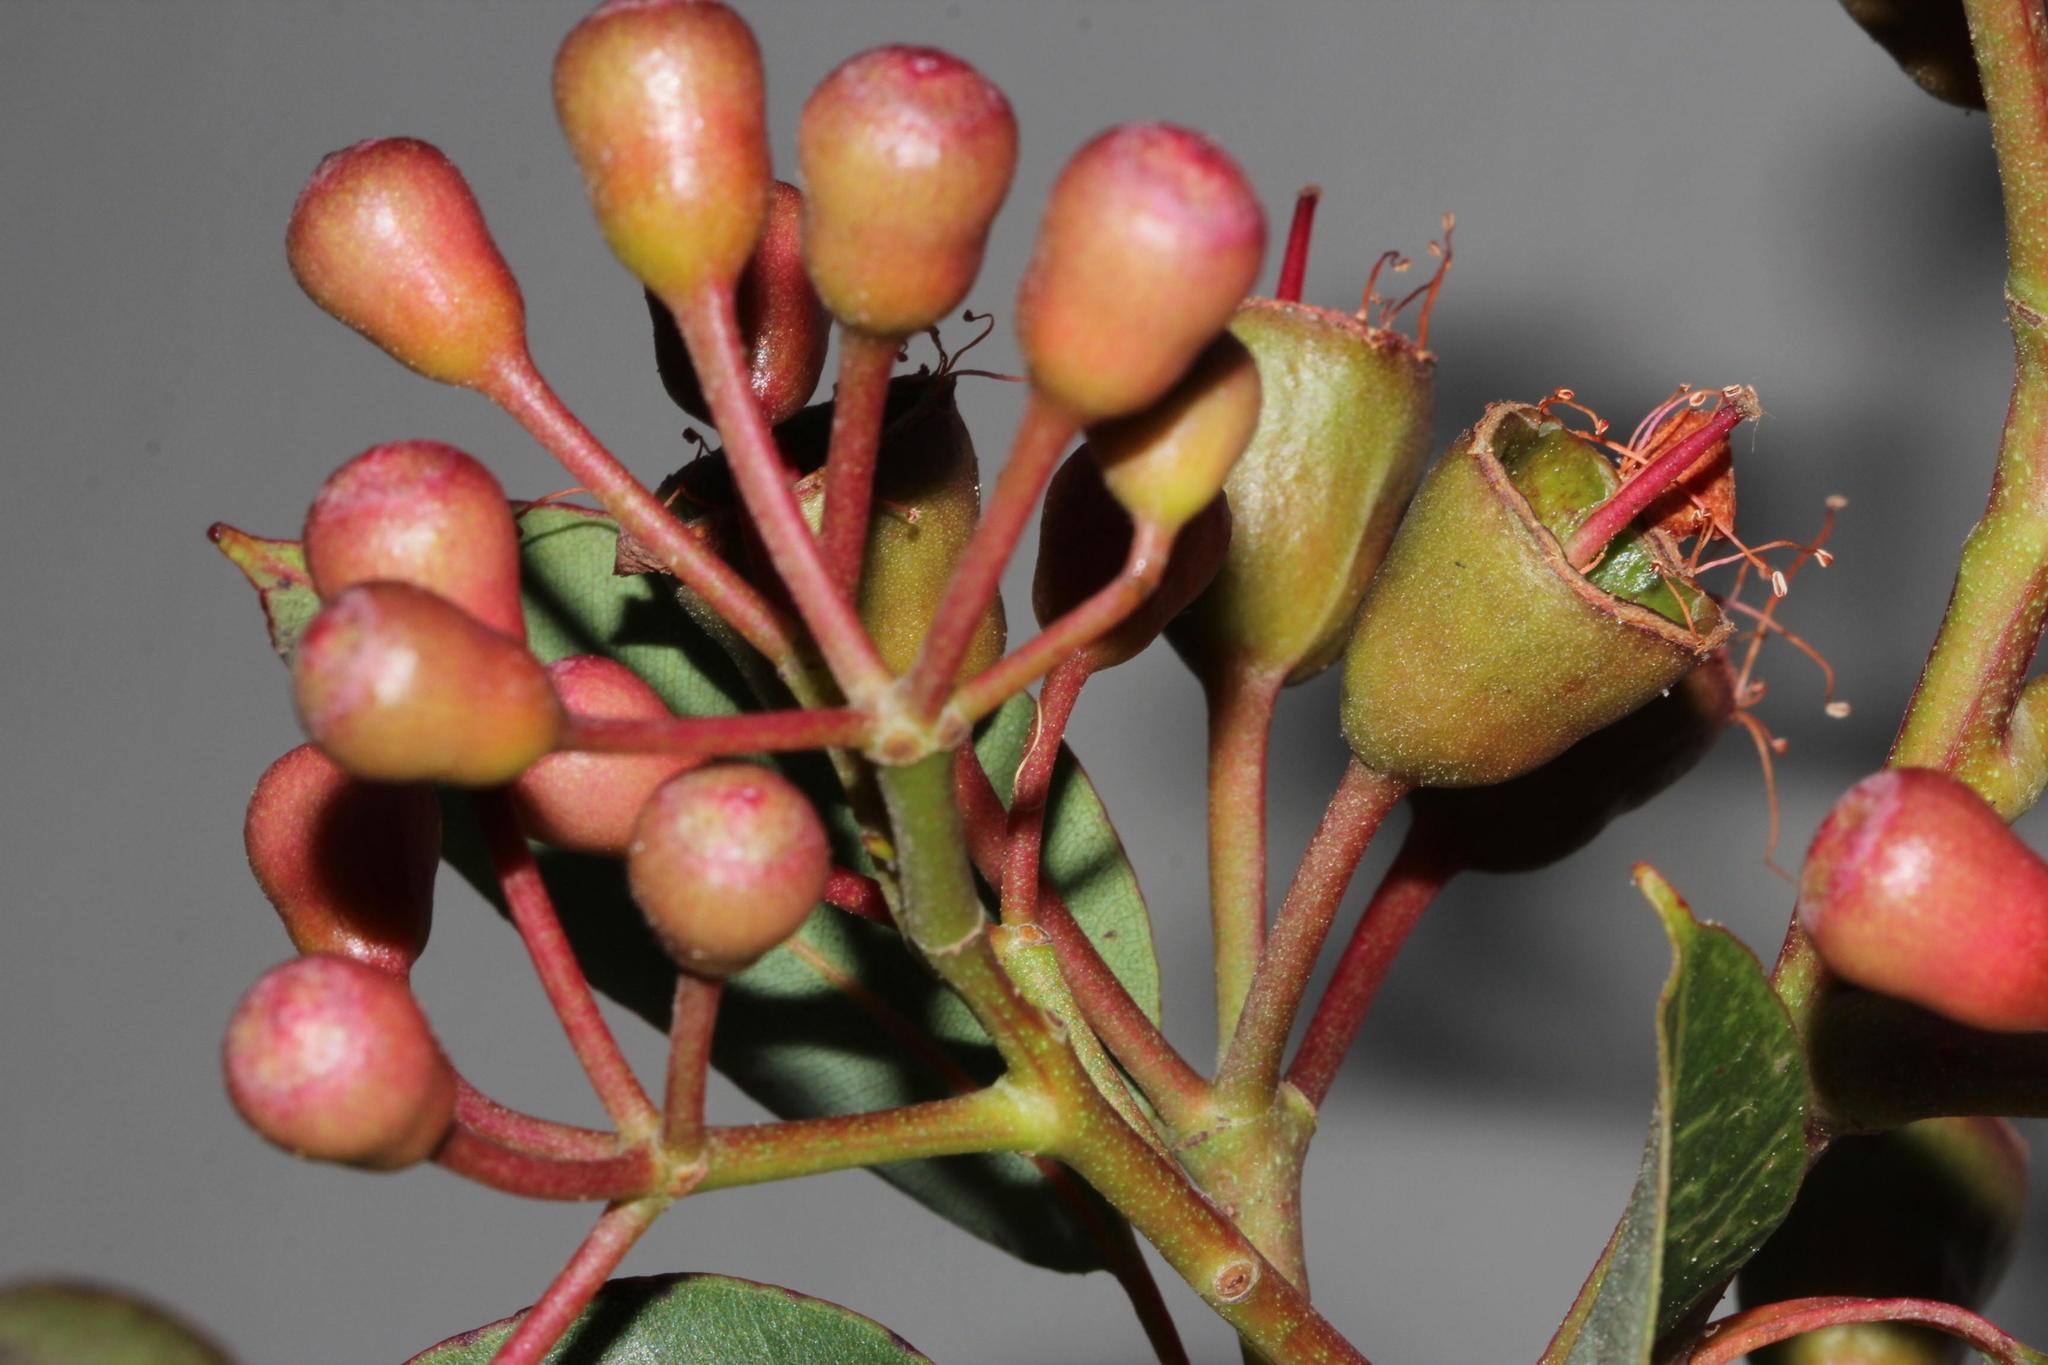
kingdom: Plantae
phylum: Tracheophyta
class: Magnoliopsida
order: Myrtales
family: Myrtaceae
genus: Corymbia
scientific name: Corymbia ficifolia
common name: Redflower gum
